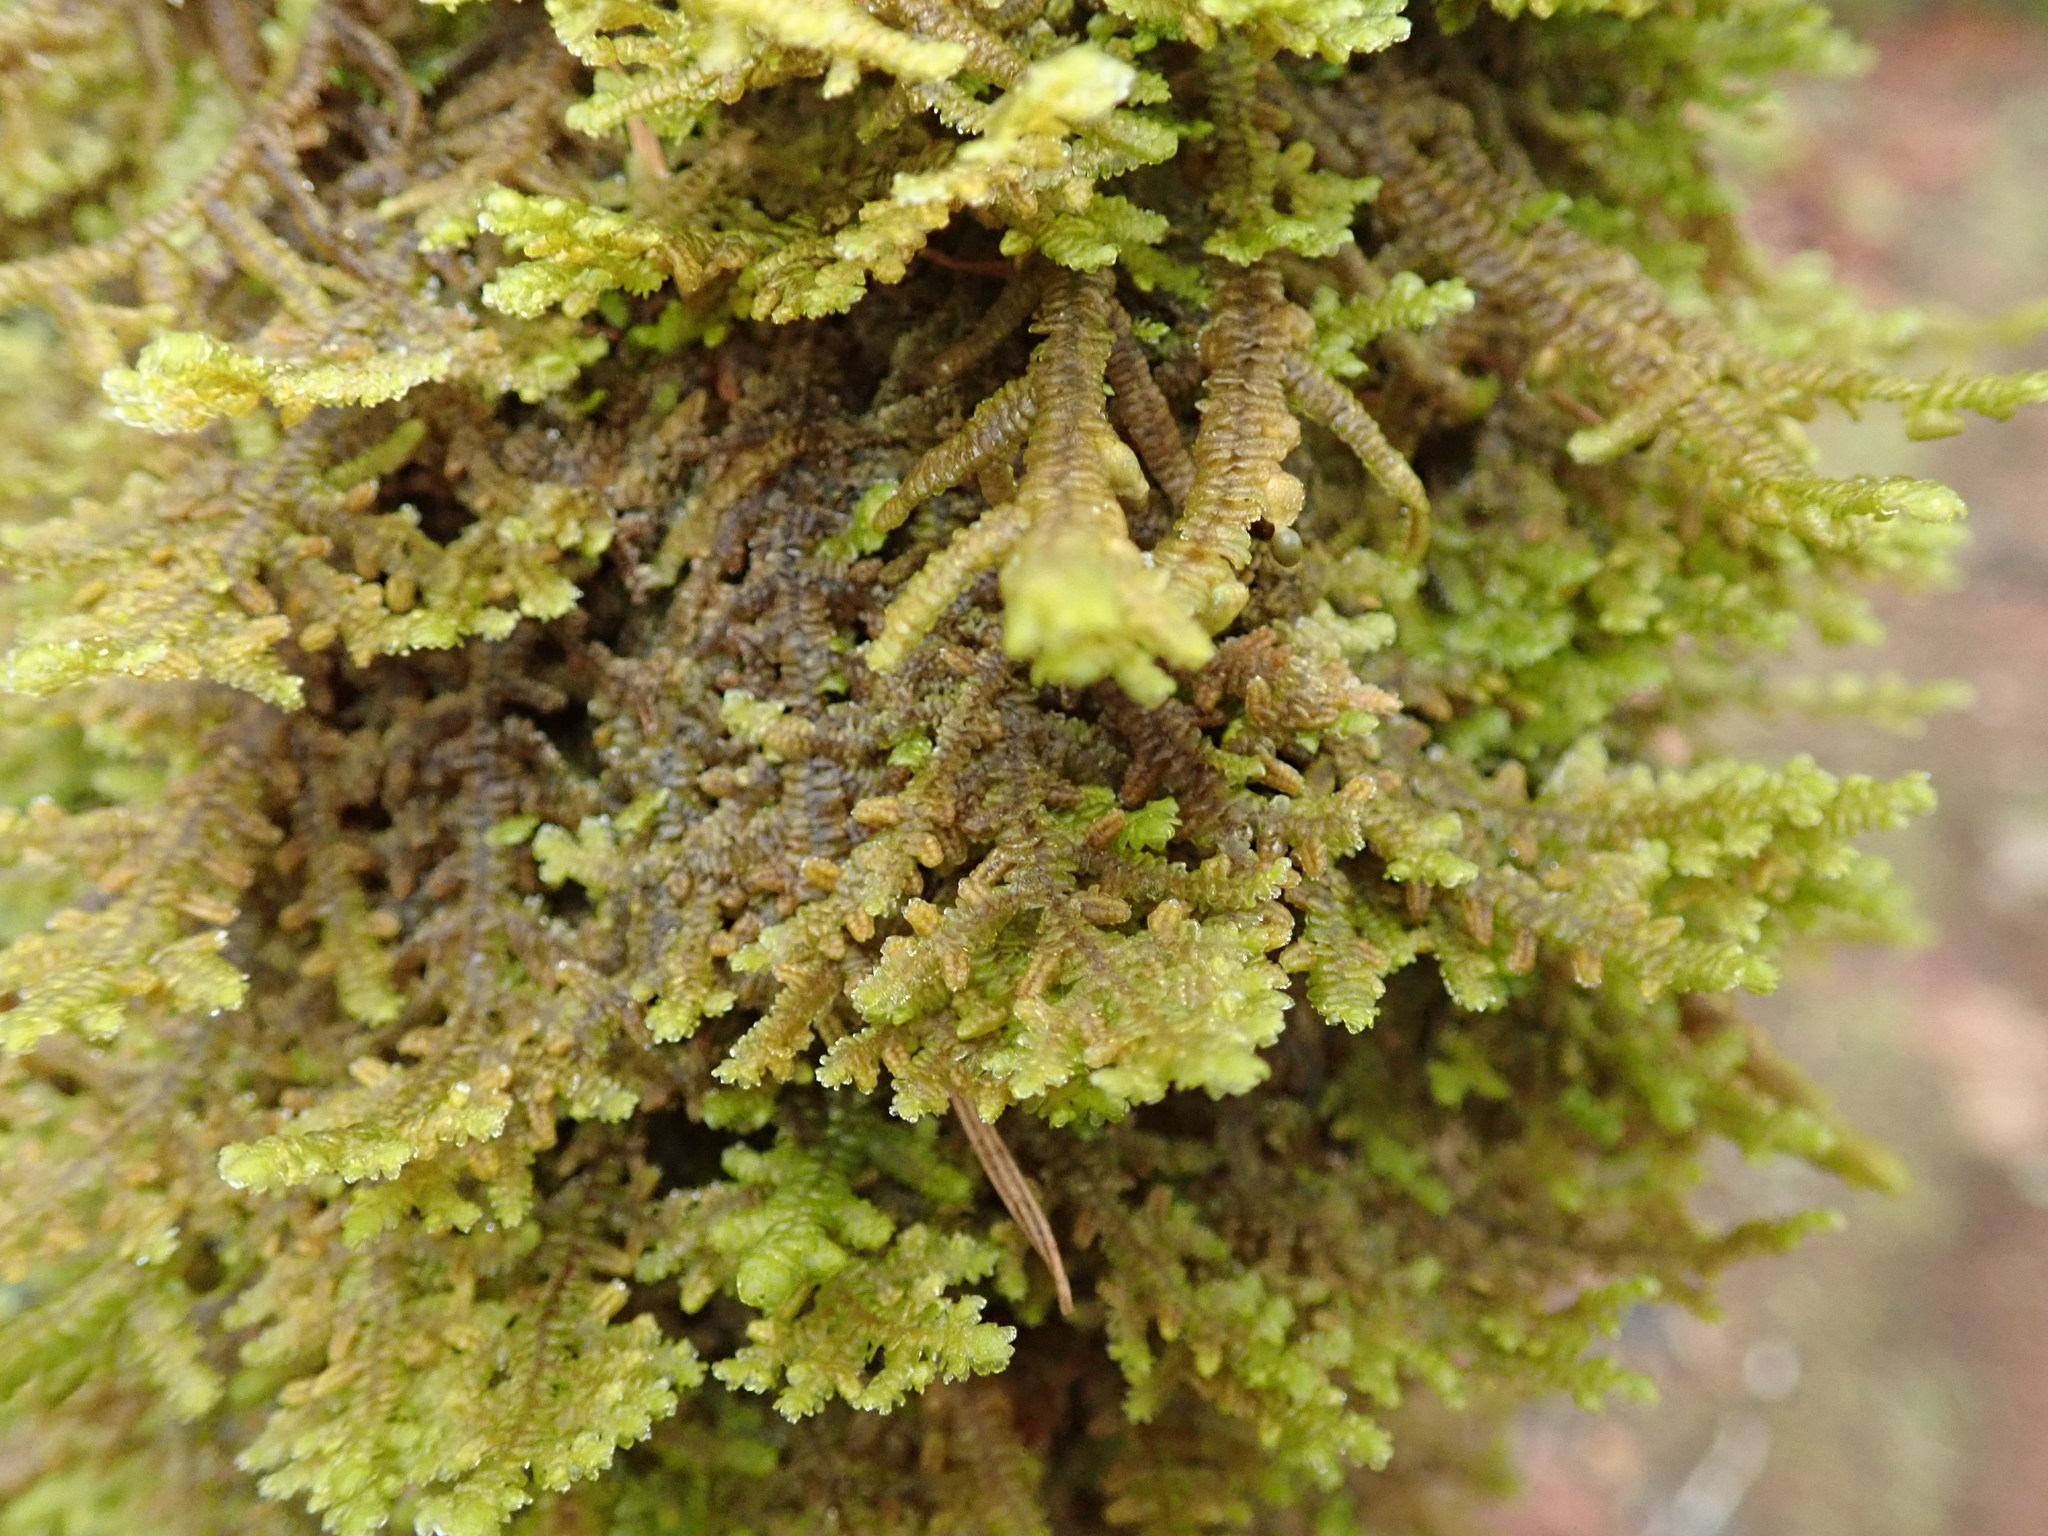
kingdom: Plantae
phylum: Marchantiophyta
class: Jungermanniopsida
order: Porellales
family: Porellaceae
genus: Porella
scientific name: Porella navicularis
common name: Tree ruffle liverwort
